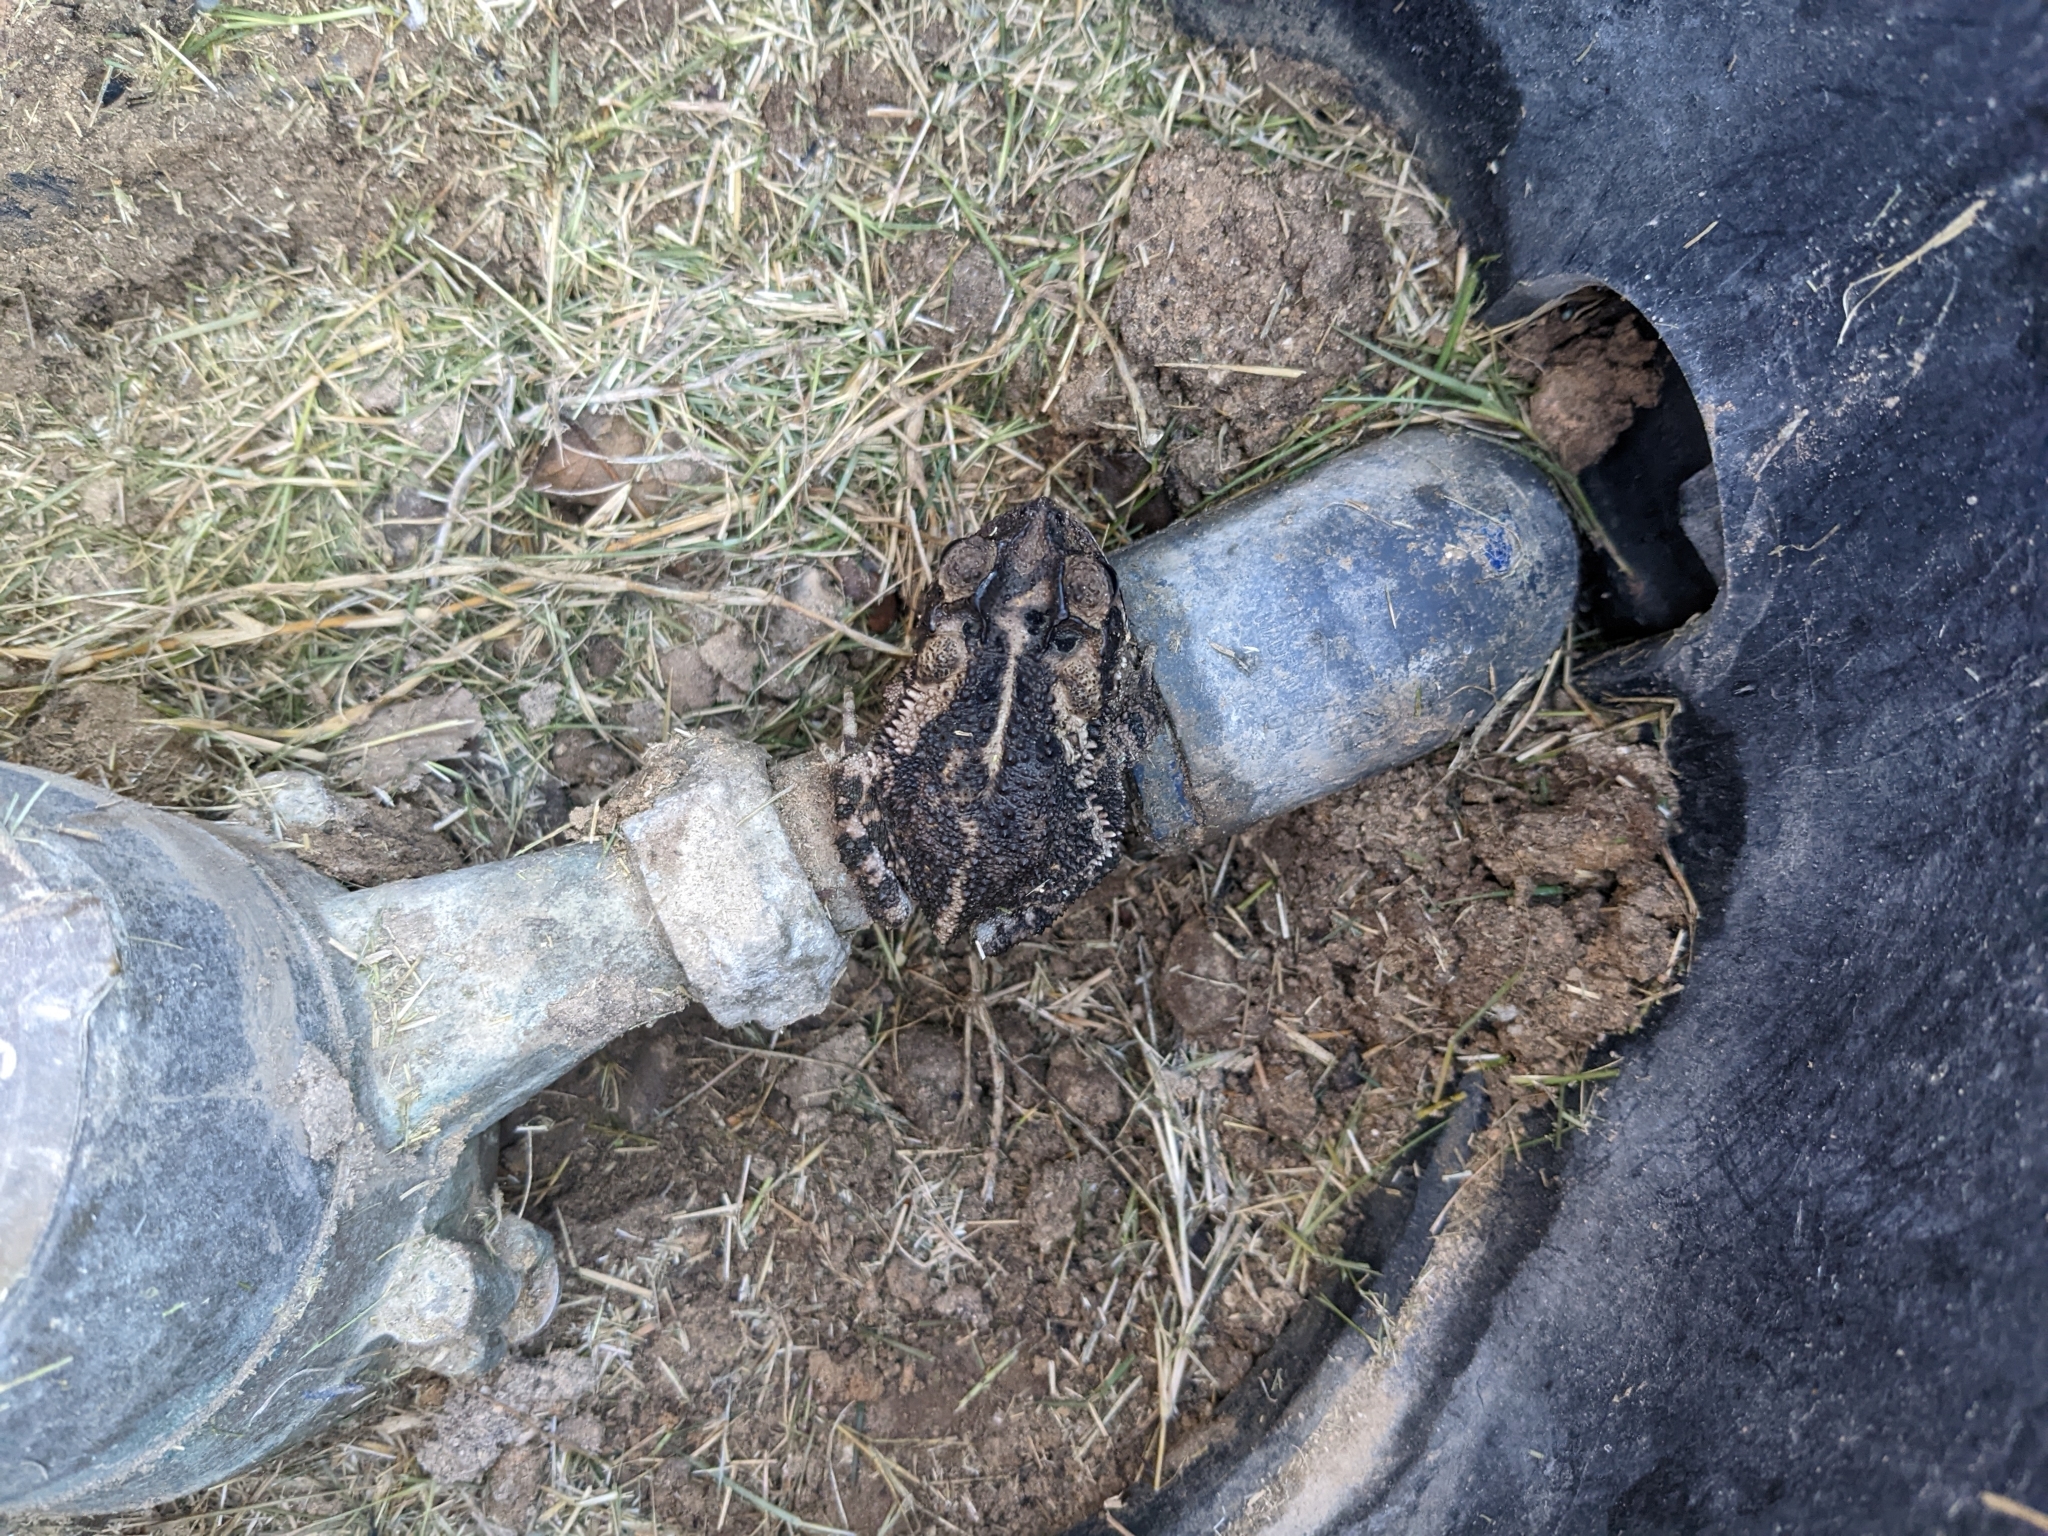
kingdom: Animalia
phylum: Chordata
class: Amphibia
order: Anura
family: Bufonidae
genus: Incilius
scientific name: Incilius nebulifer
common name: Gulf coast toad
